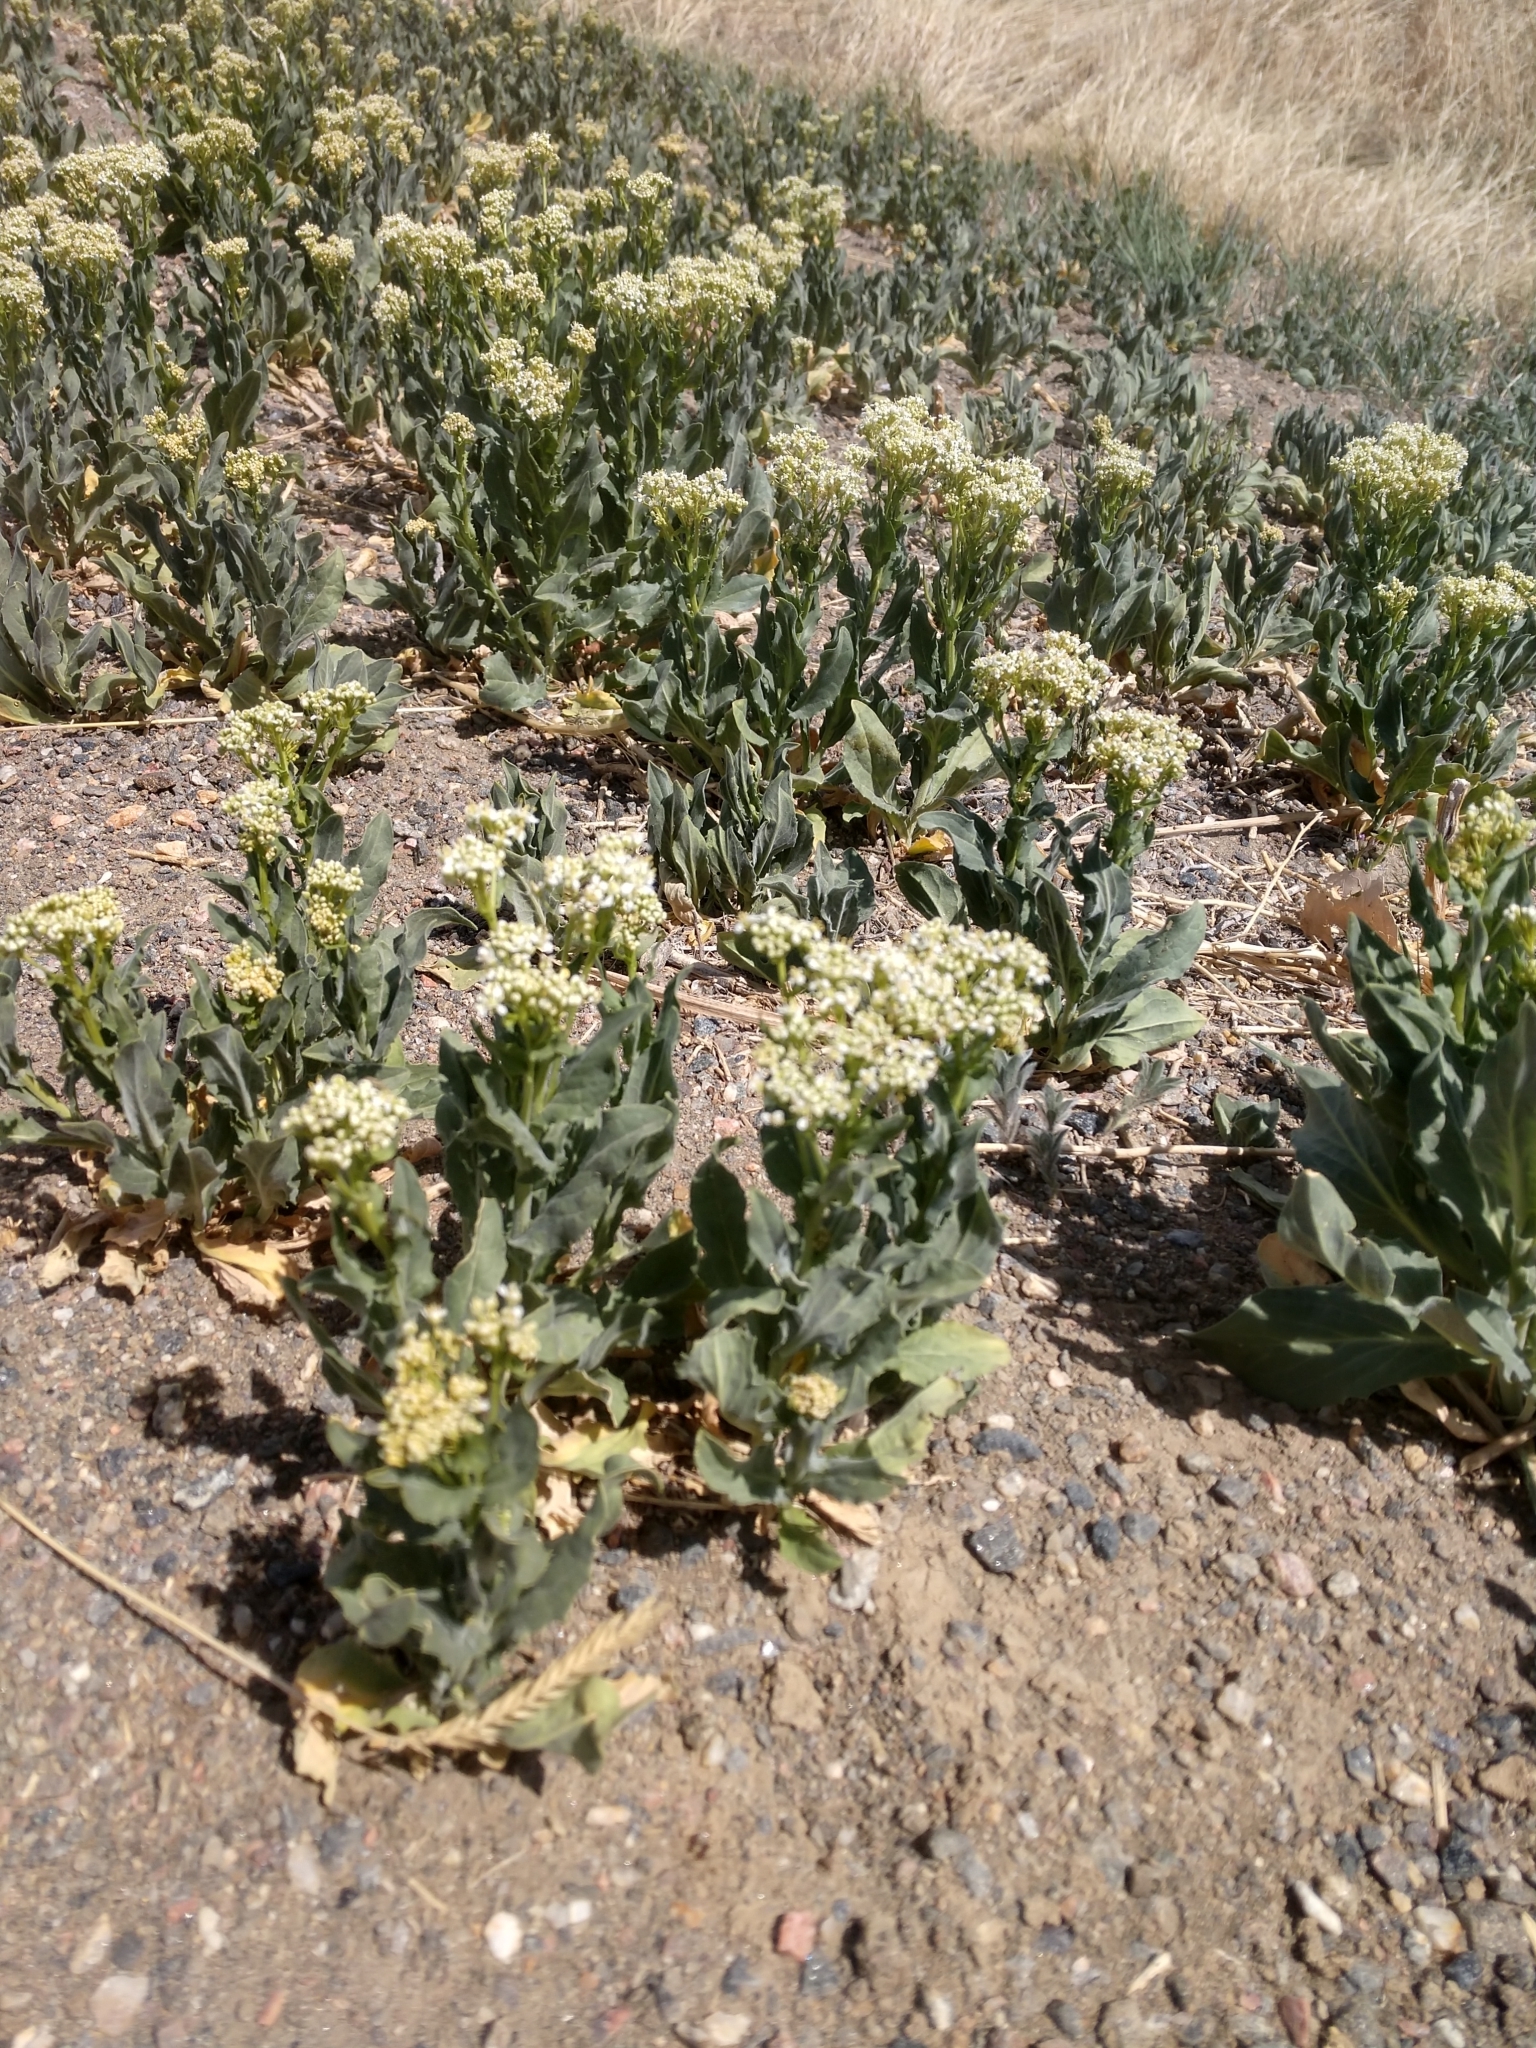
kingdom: Plantae
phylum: Tracheophyta
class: Magnoliopsida
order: Brassicales
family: Brassicaceae
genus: Lepidium
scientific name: Lepidium draba
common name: Hoary cress
